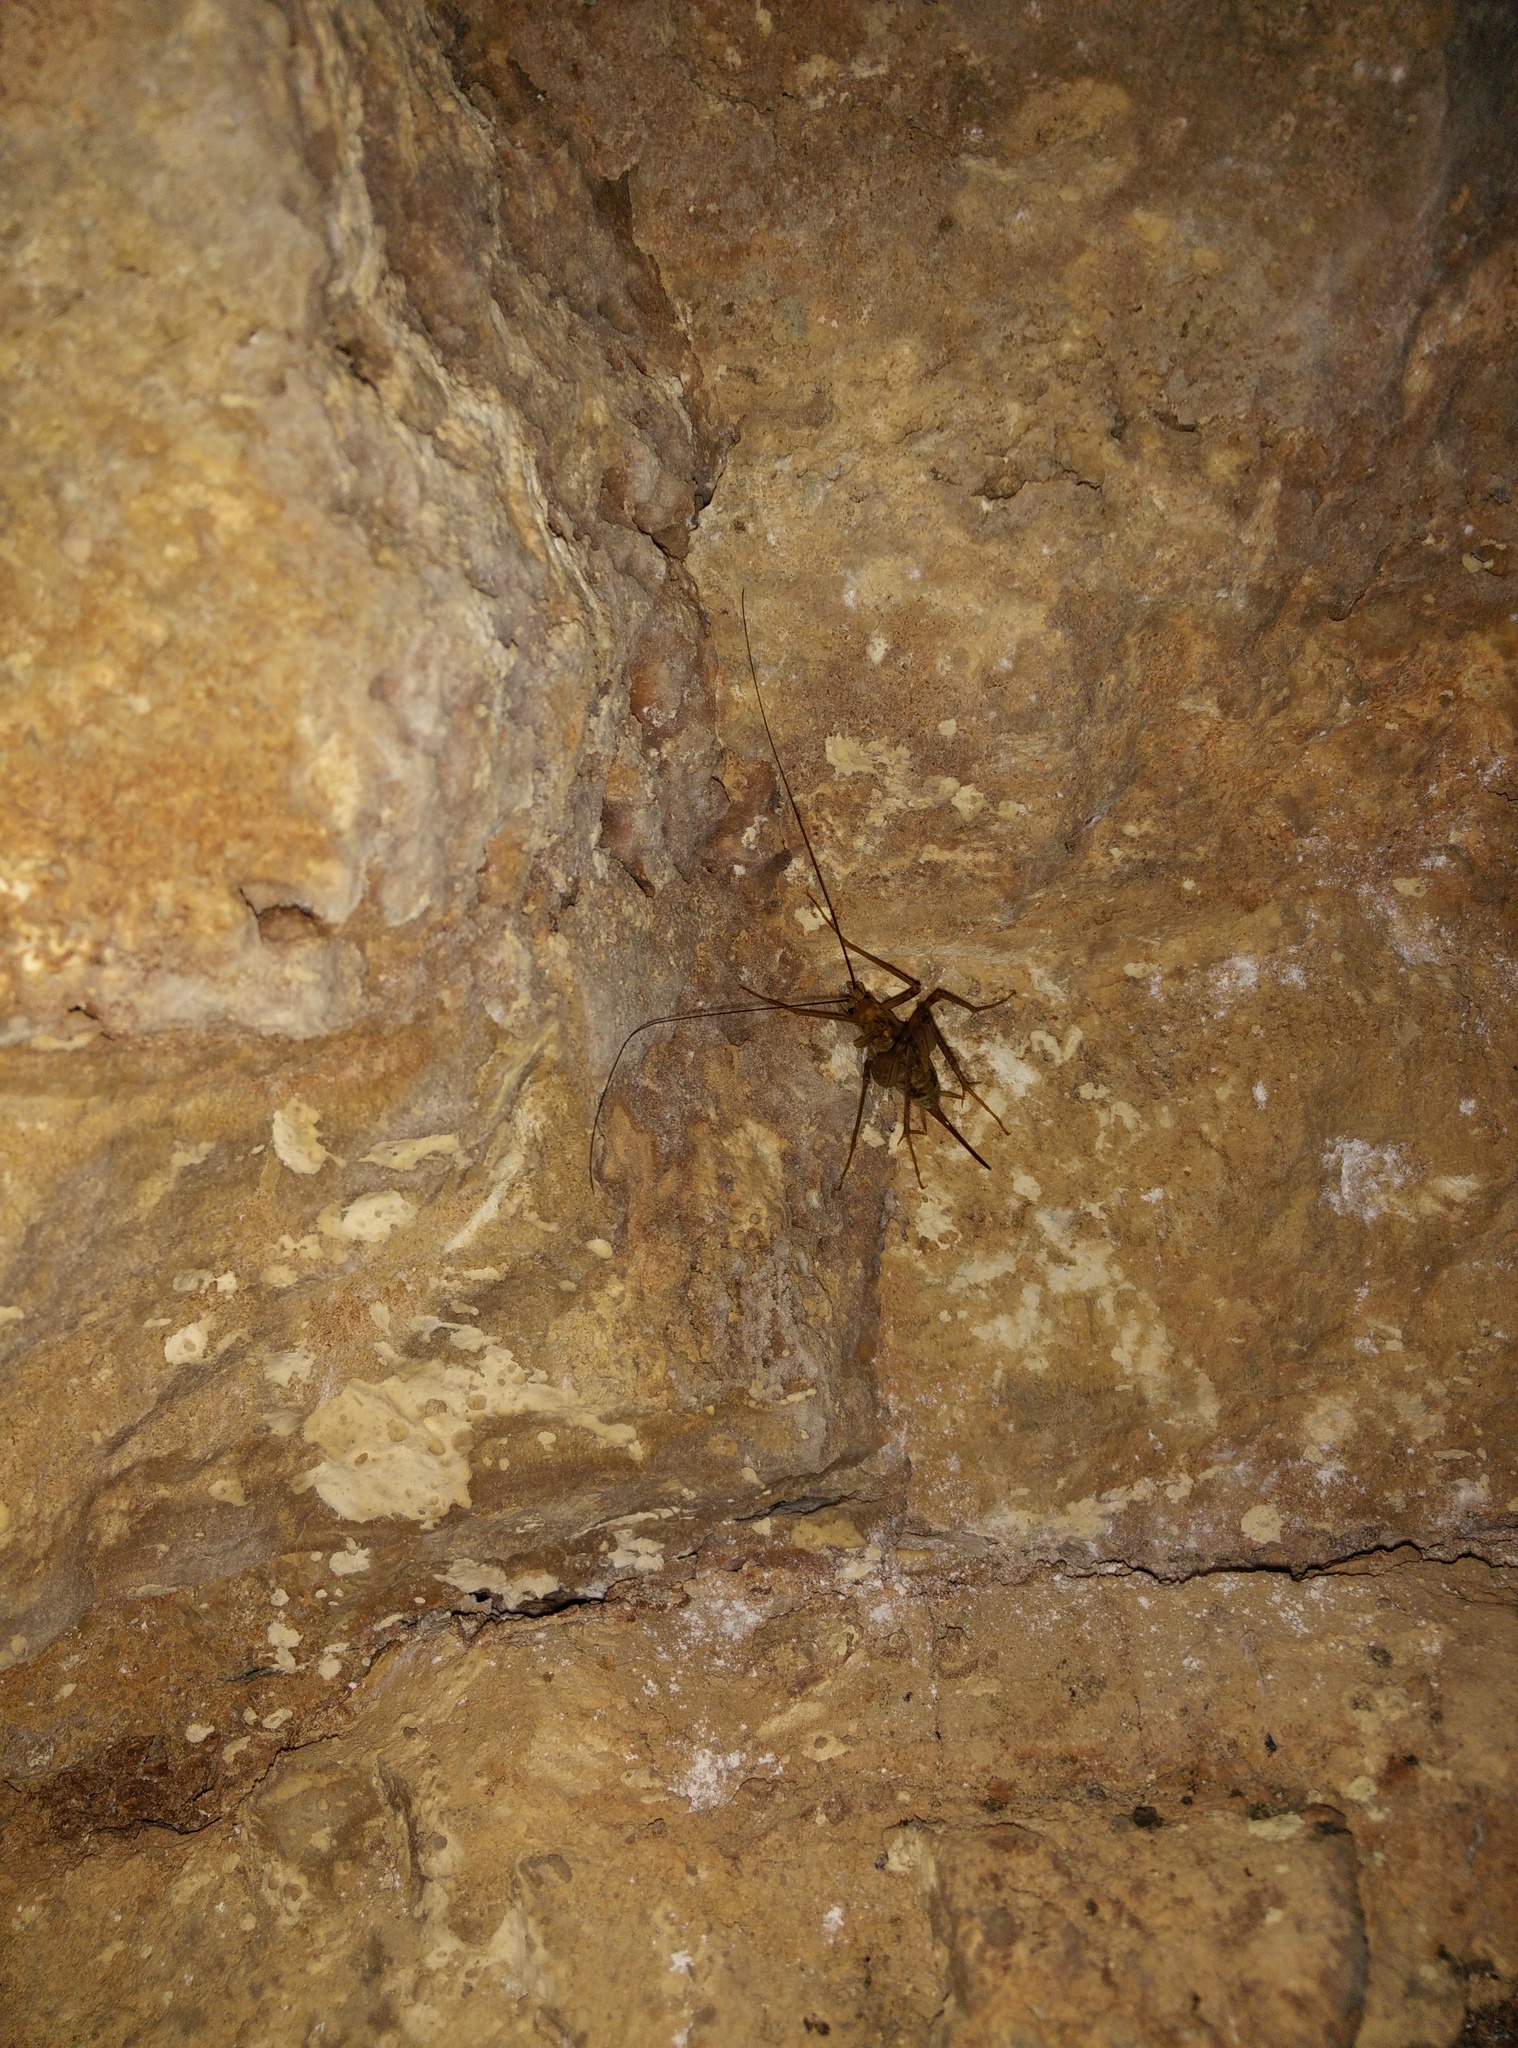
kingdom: Animalia
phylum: Arthropoda
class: Insecta
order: Orthoptera
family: Rhaphidophoridae
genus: Cavernotettix
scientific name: Cavernotettix montanus
